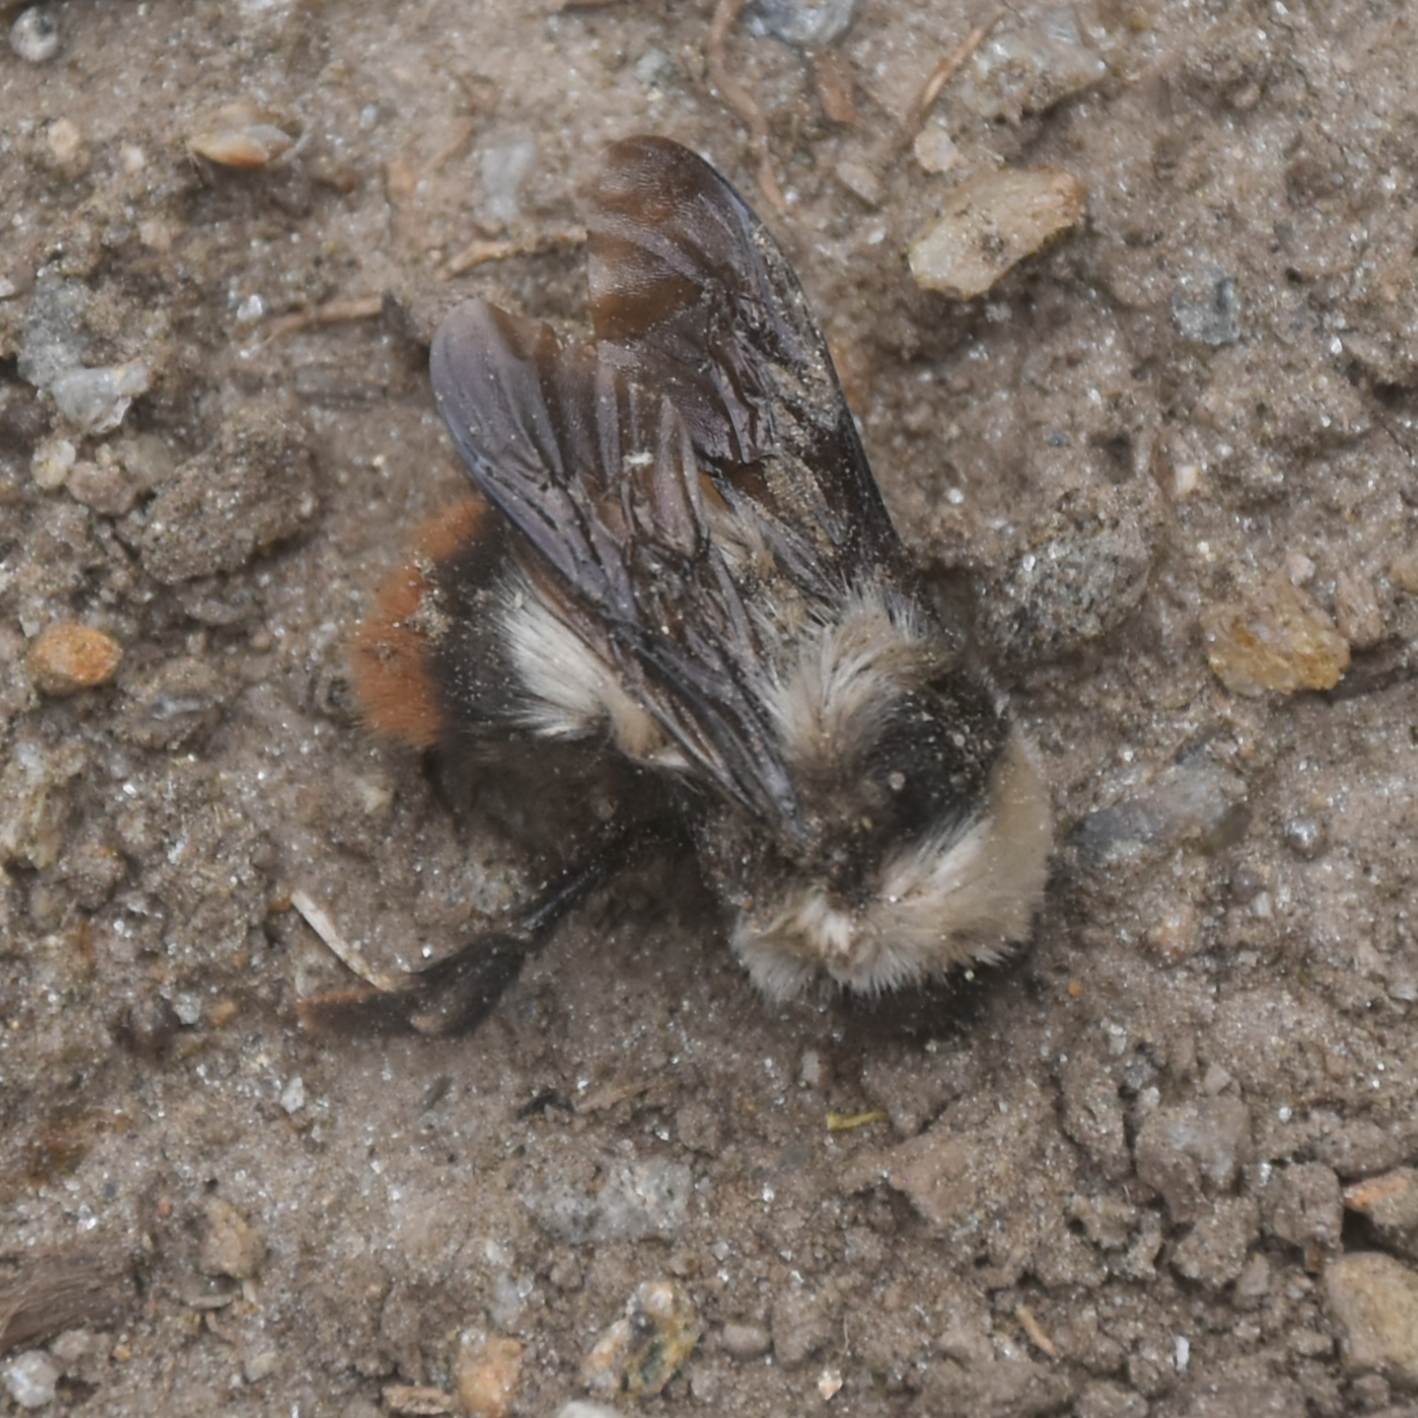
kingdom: Animalia
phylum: Arthropoda
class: Insecta
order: Hymenoptera
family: Apidae
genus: Bombus
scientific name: Bombus tunicatus
